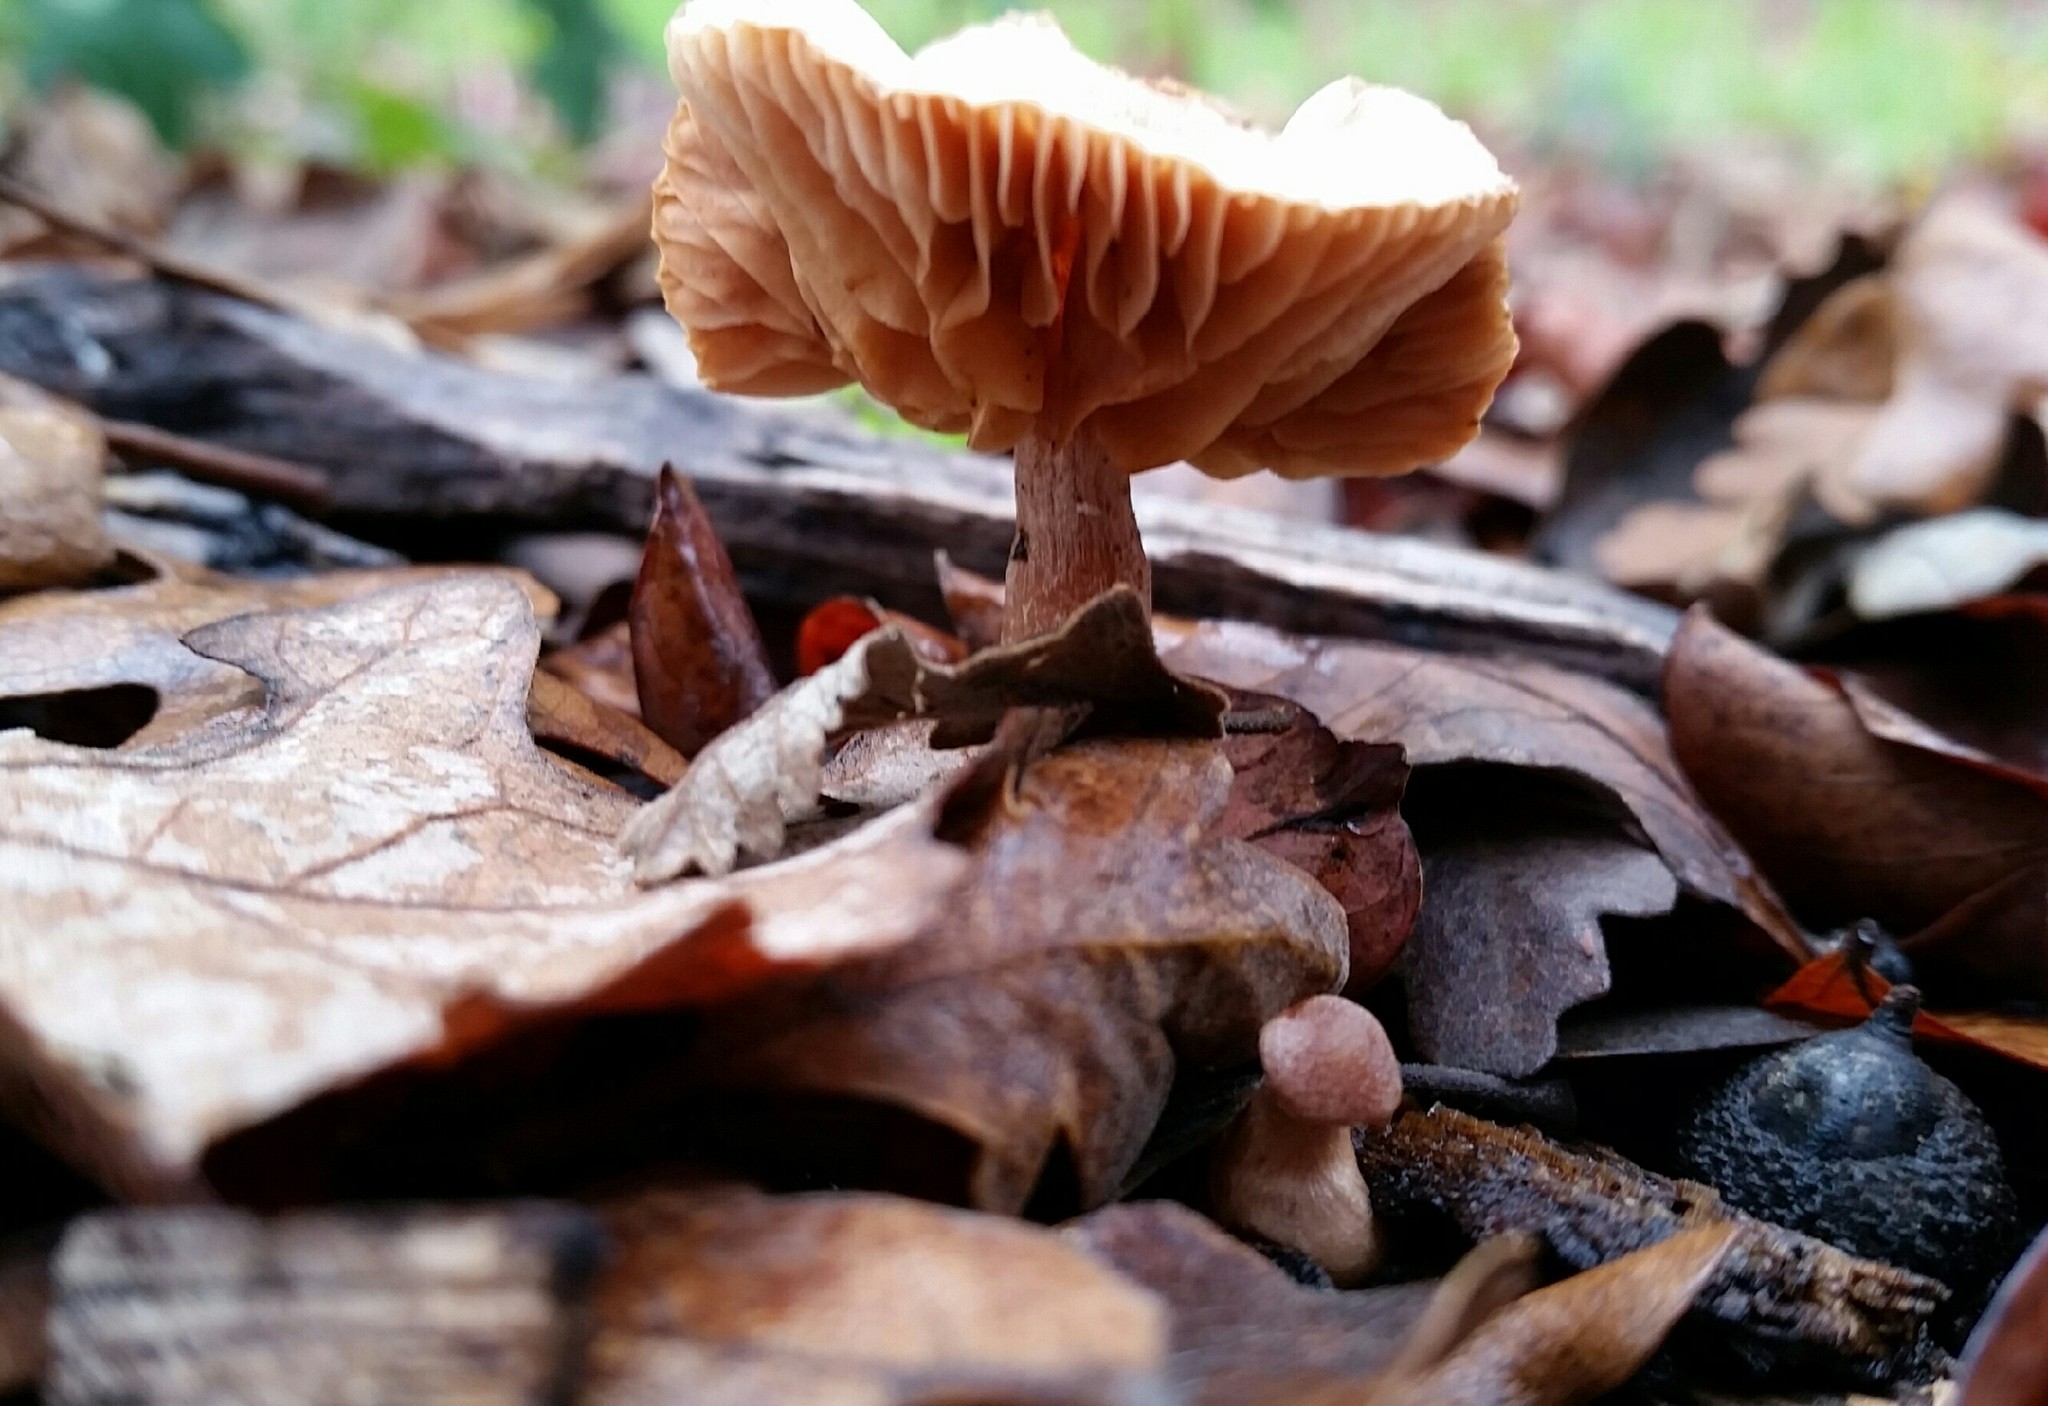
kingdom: Fungi
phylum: Basidiomycota
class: Agaricomycetes
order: Agaricales
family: Tubariaceae
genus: Tubaria
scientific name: Tubaria furfuracea
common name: Scurfy twiglet
